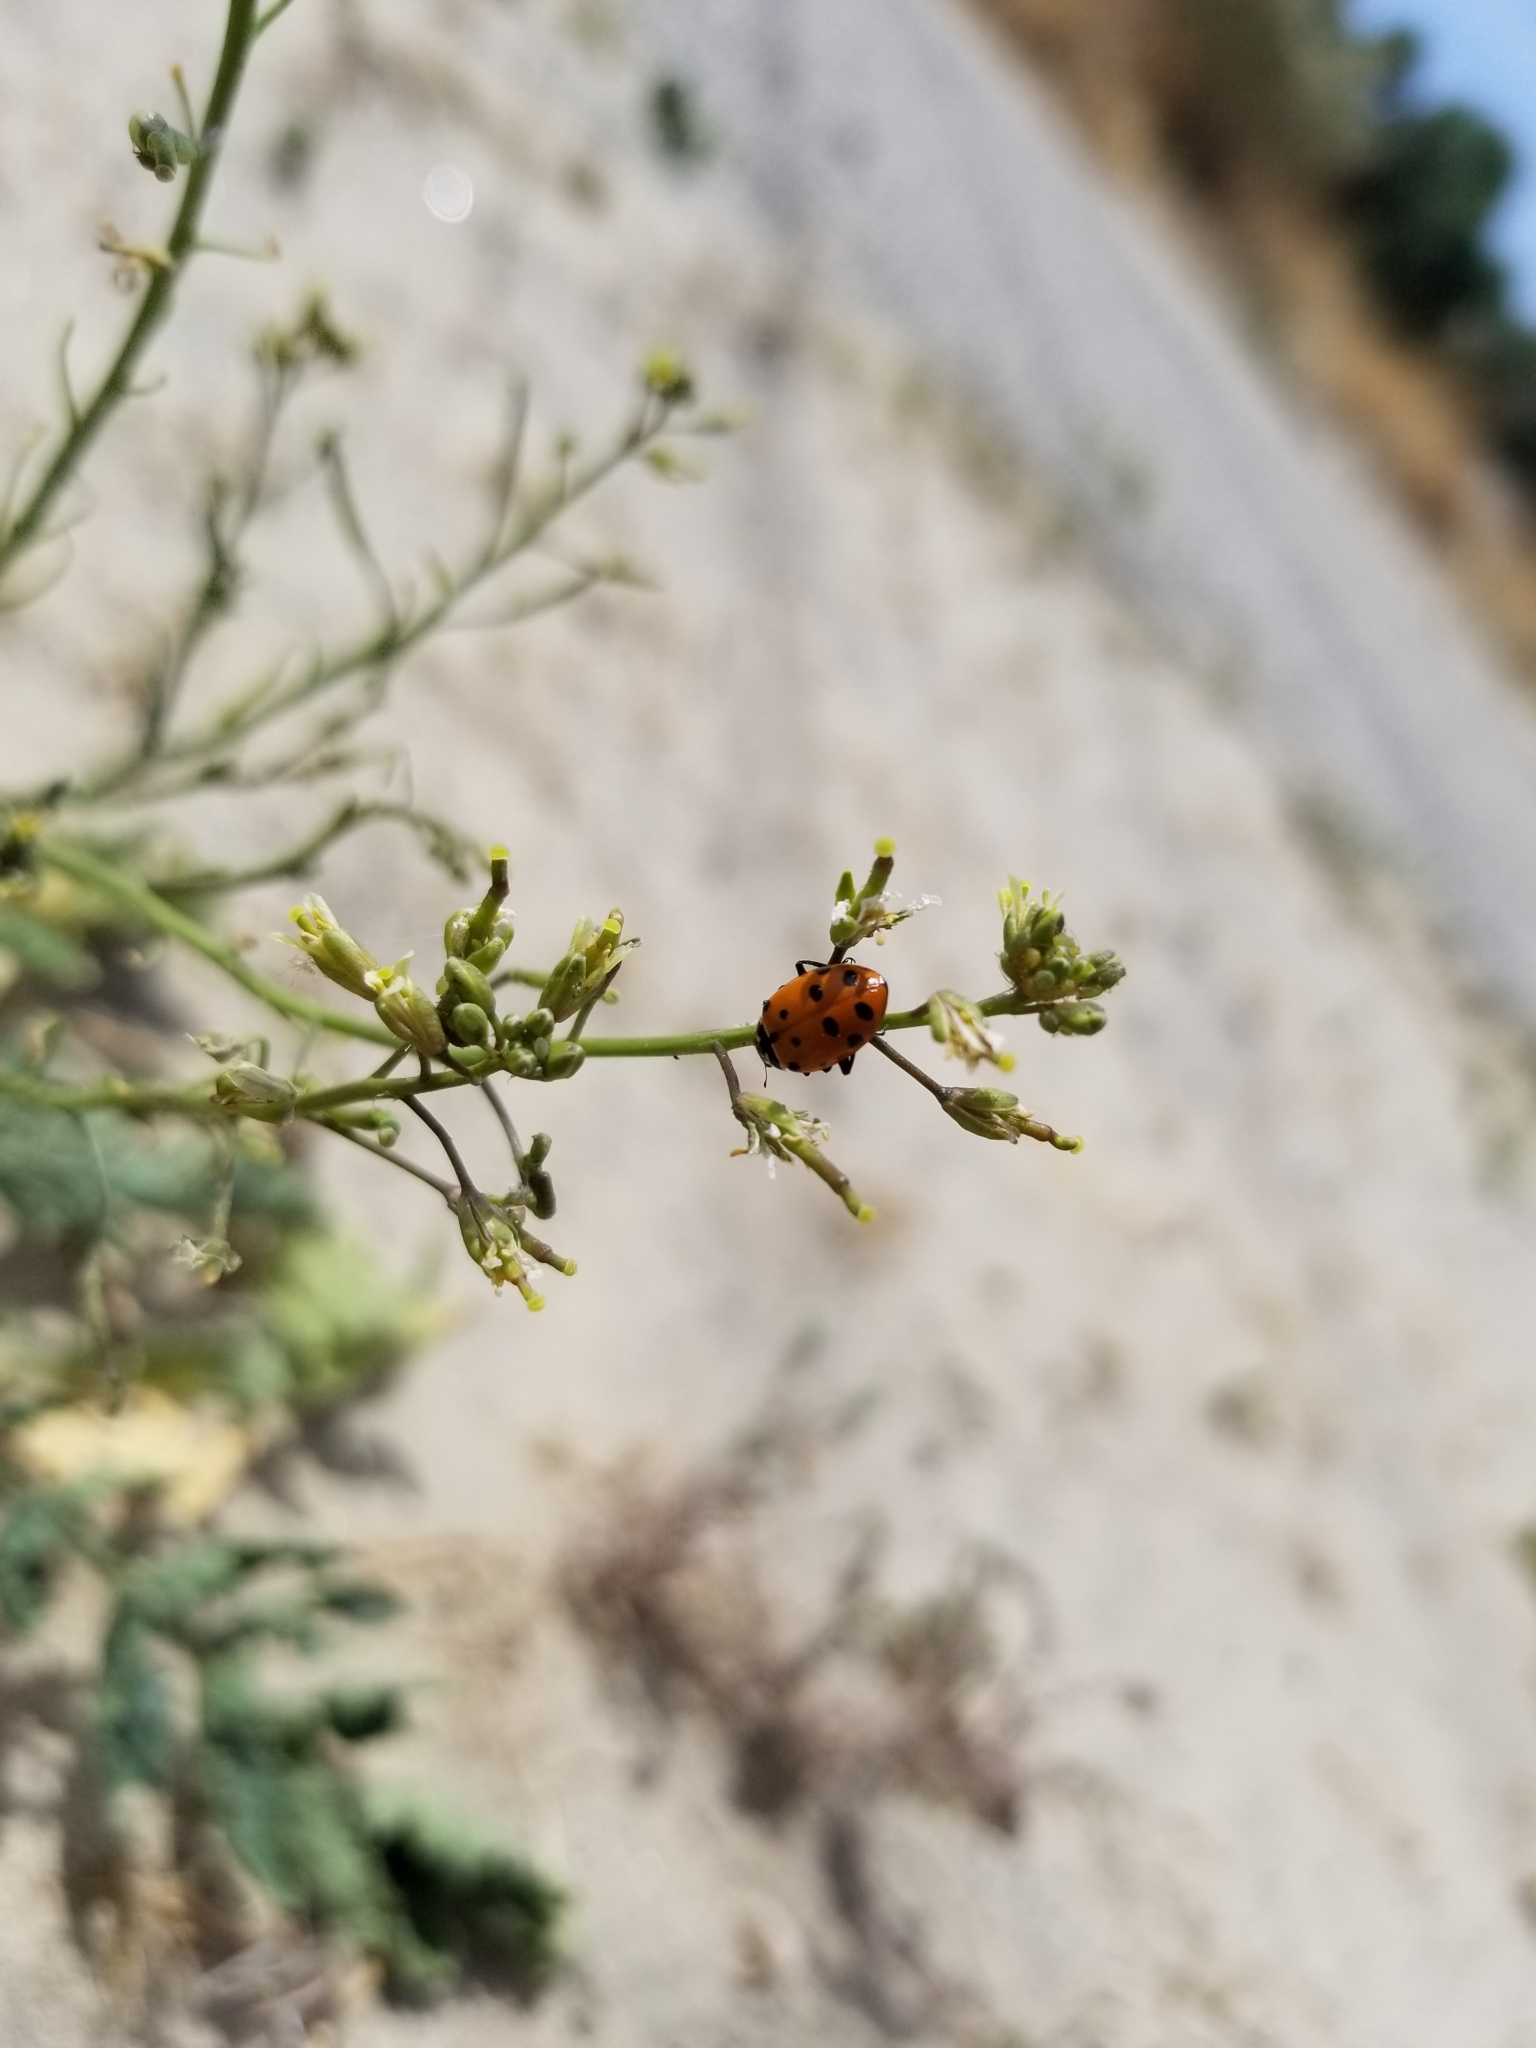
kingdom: Animalia
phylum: Arthropoda
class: Insecta
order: Coleoptera
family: Coccinellidae
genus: Hippodamia
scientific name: Hippodamia convergens
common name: Convergent lady beetle
